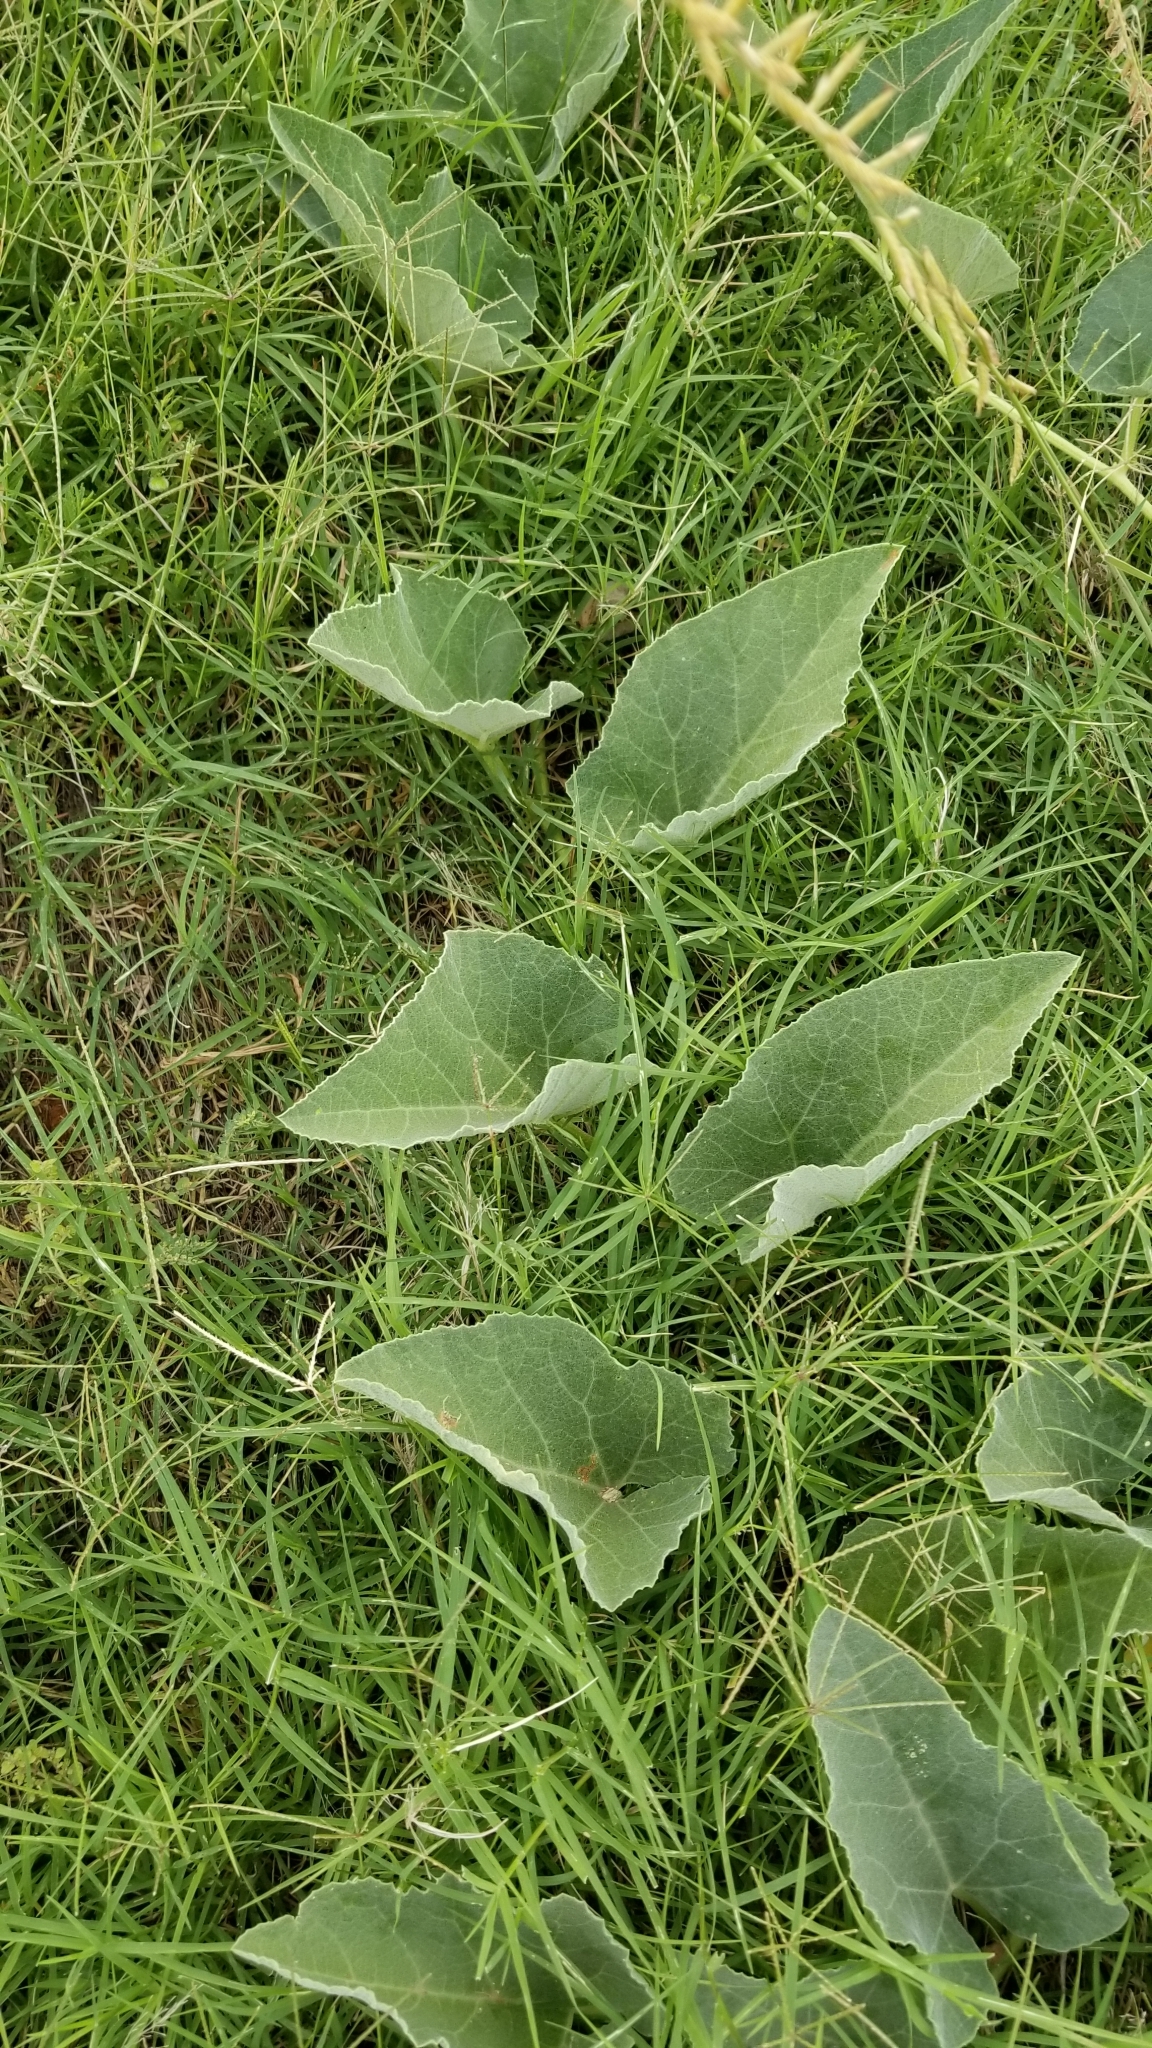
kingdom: Plantae
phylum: Tracheophyta
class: Magnoliopsida
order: Cucurbitales
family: Cucurbitaceae
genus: Cucurbita
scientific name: Cucurbita foetidissima
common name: Buffalo gourd
